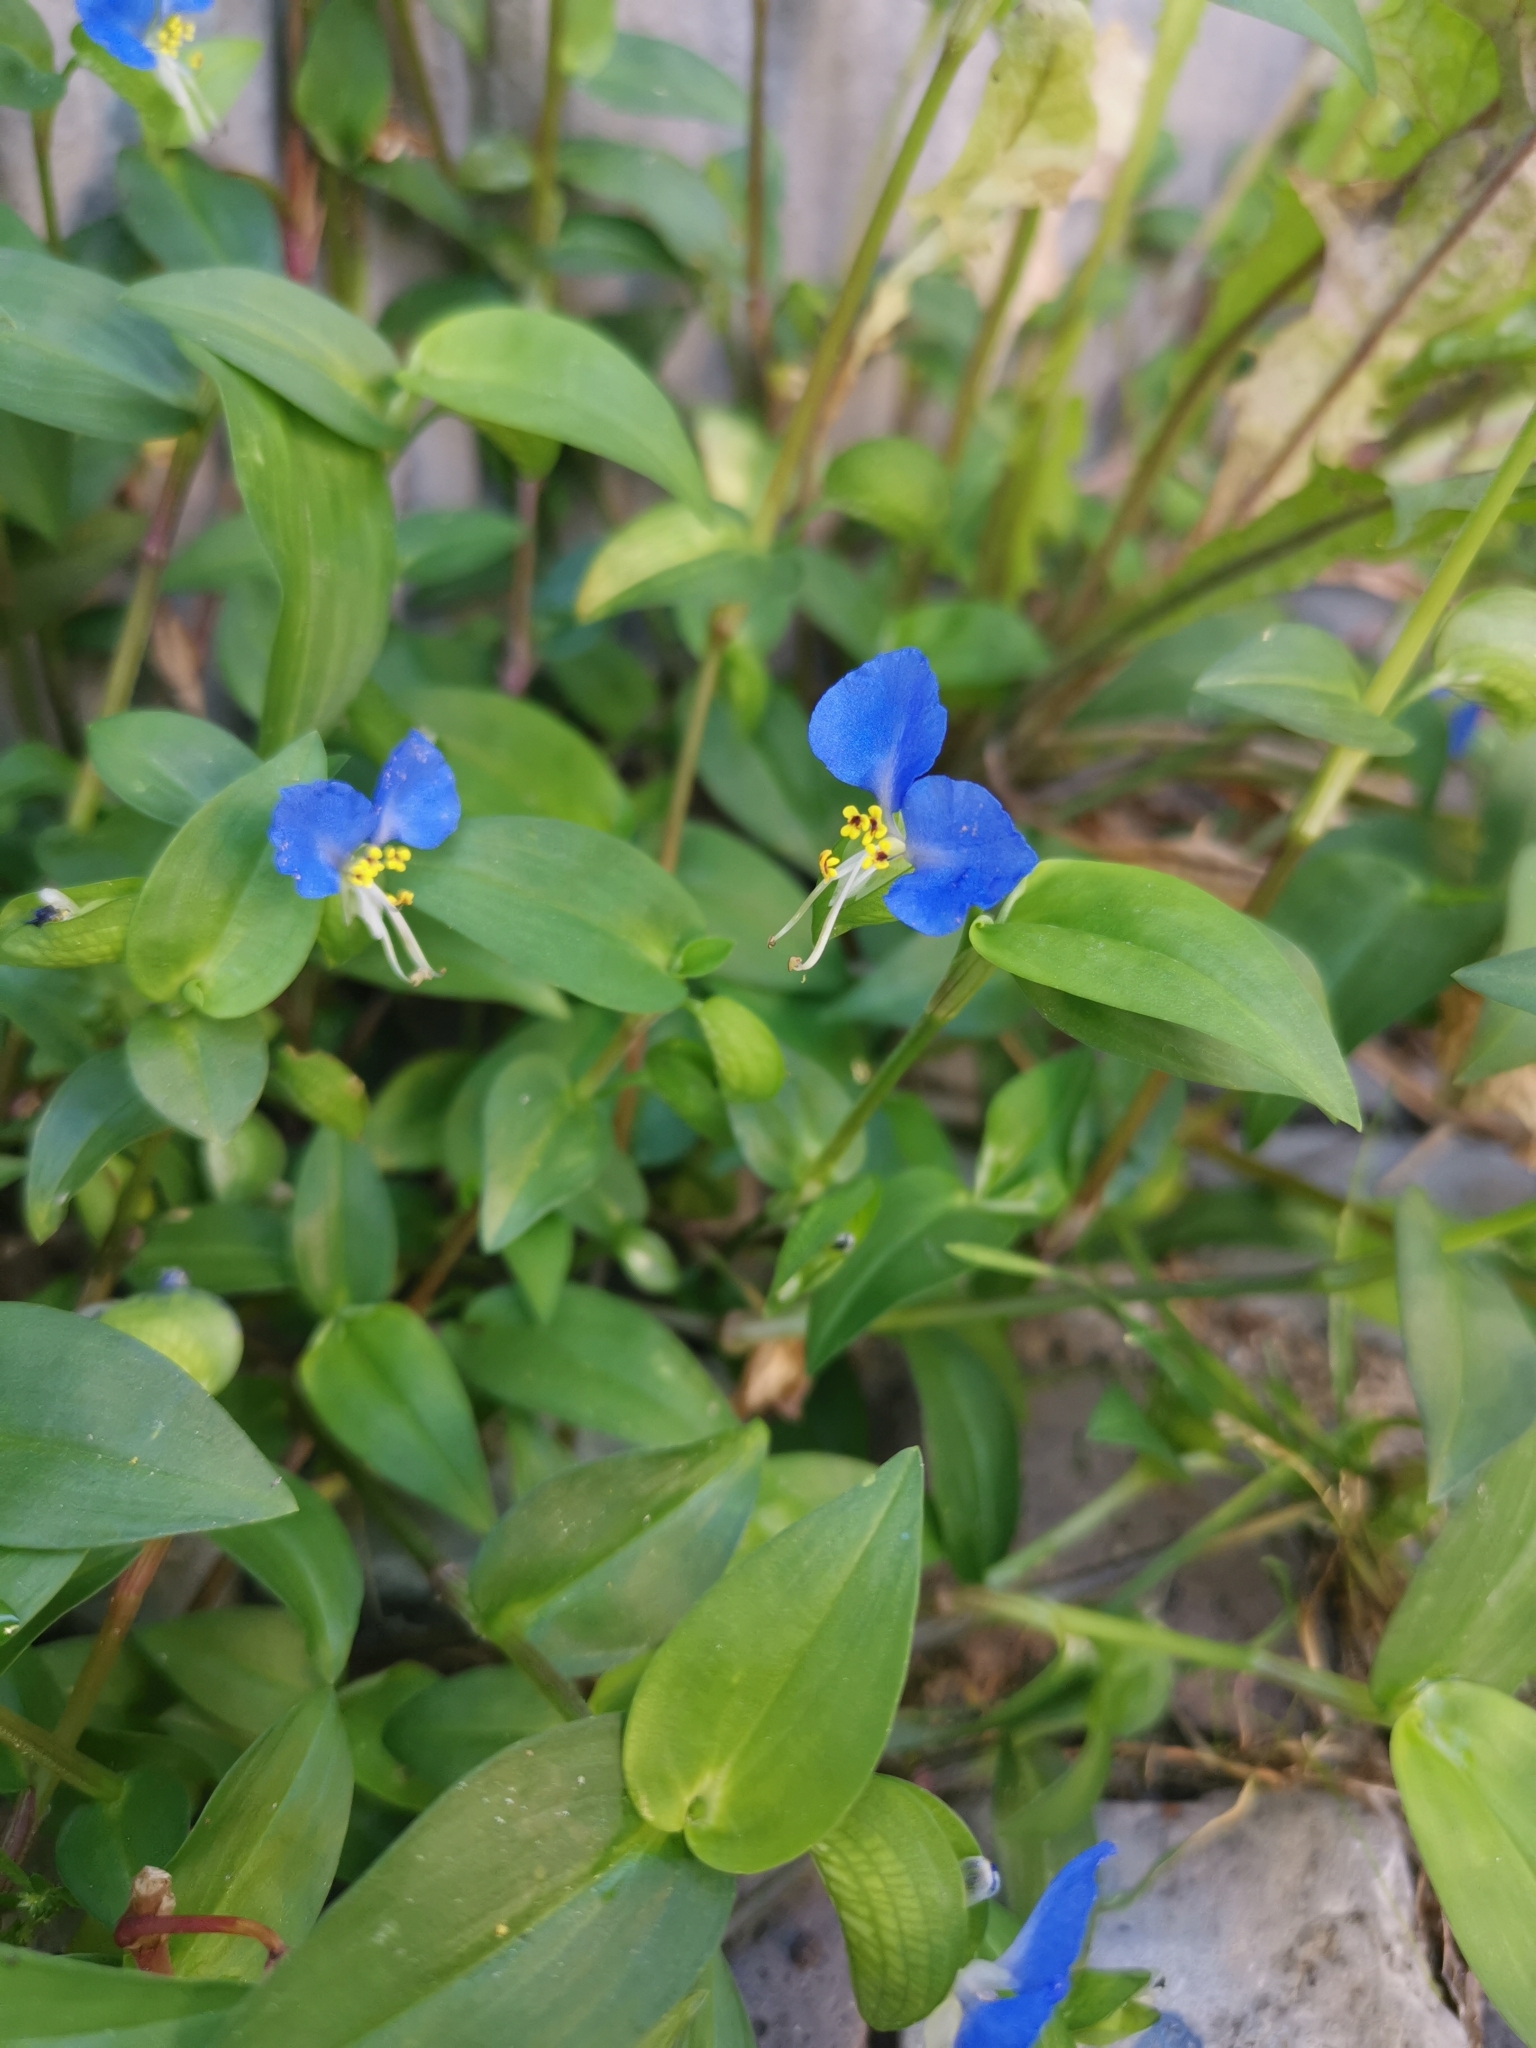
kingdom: Plantae
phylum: Tracheophyta
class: Liliopsida
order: Commelinales
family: Commelinaceae
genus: Commelina
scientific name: Commelina communis
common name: Asiatic dayflower
